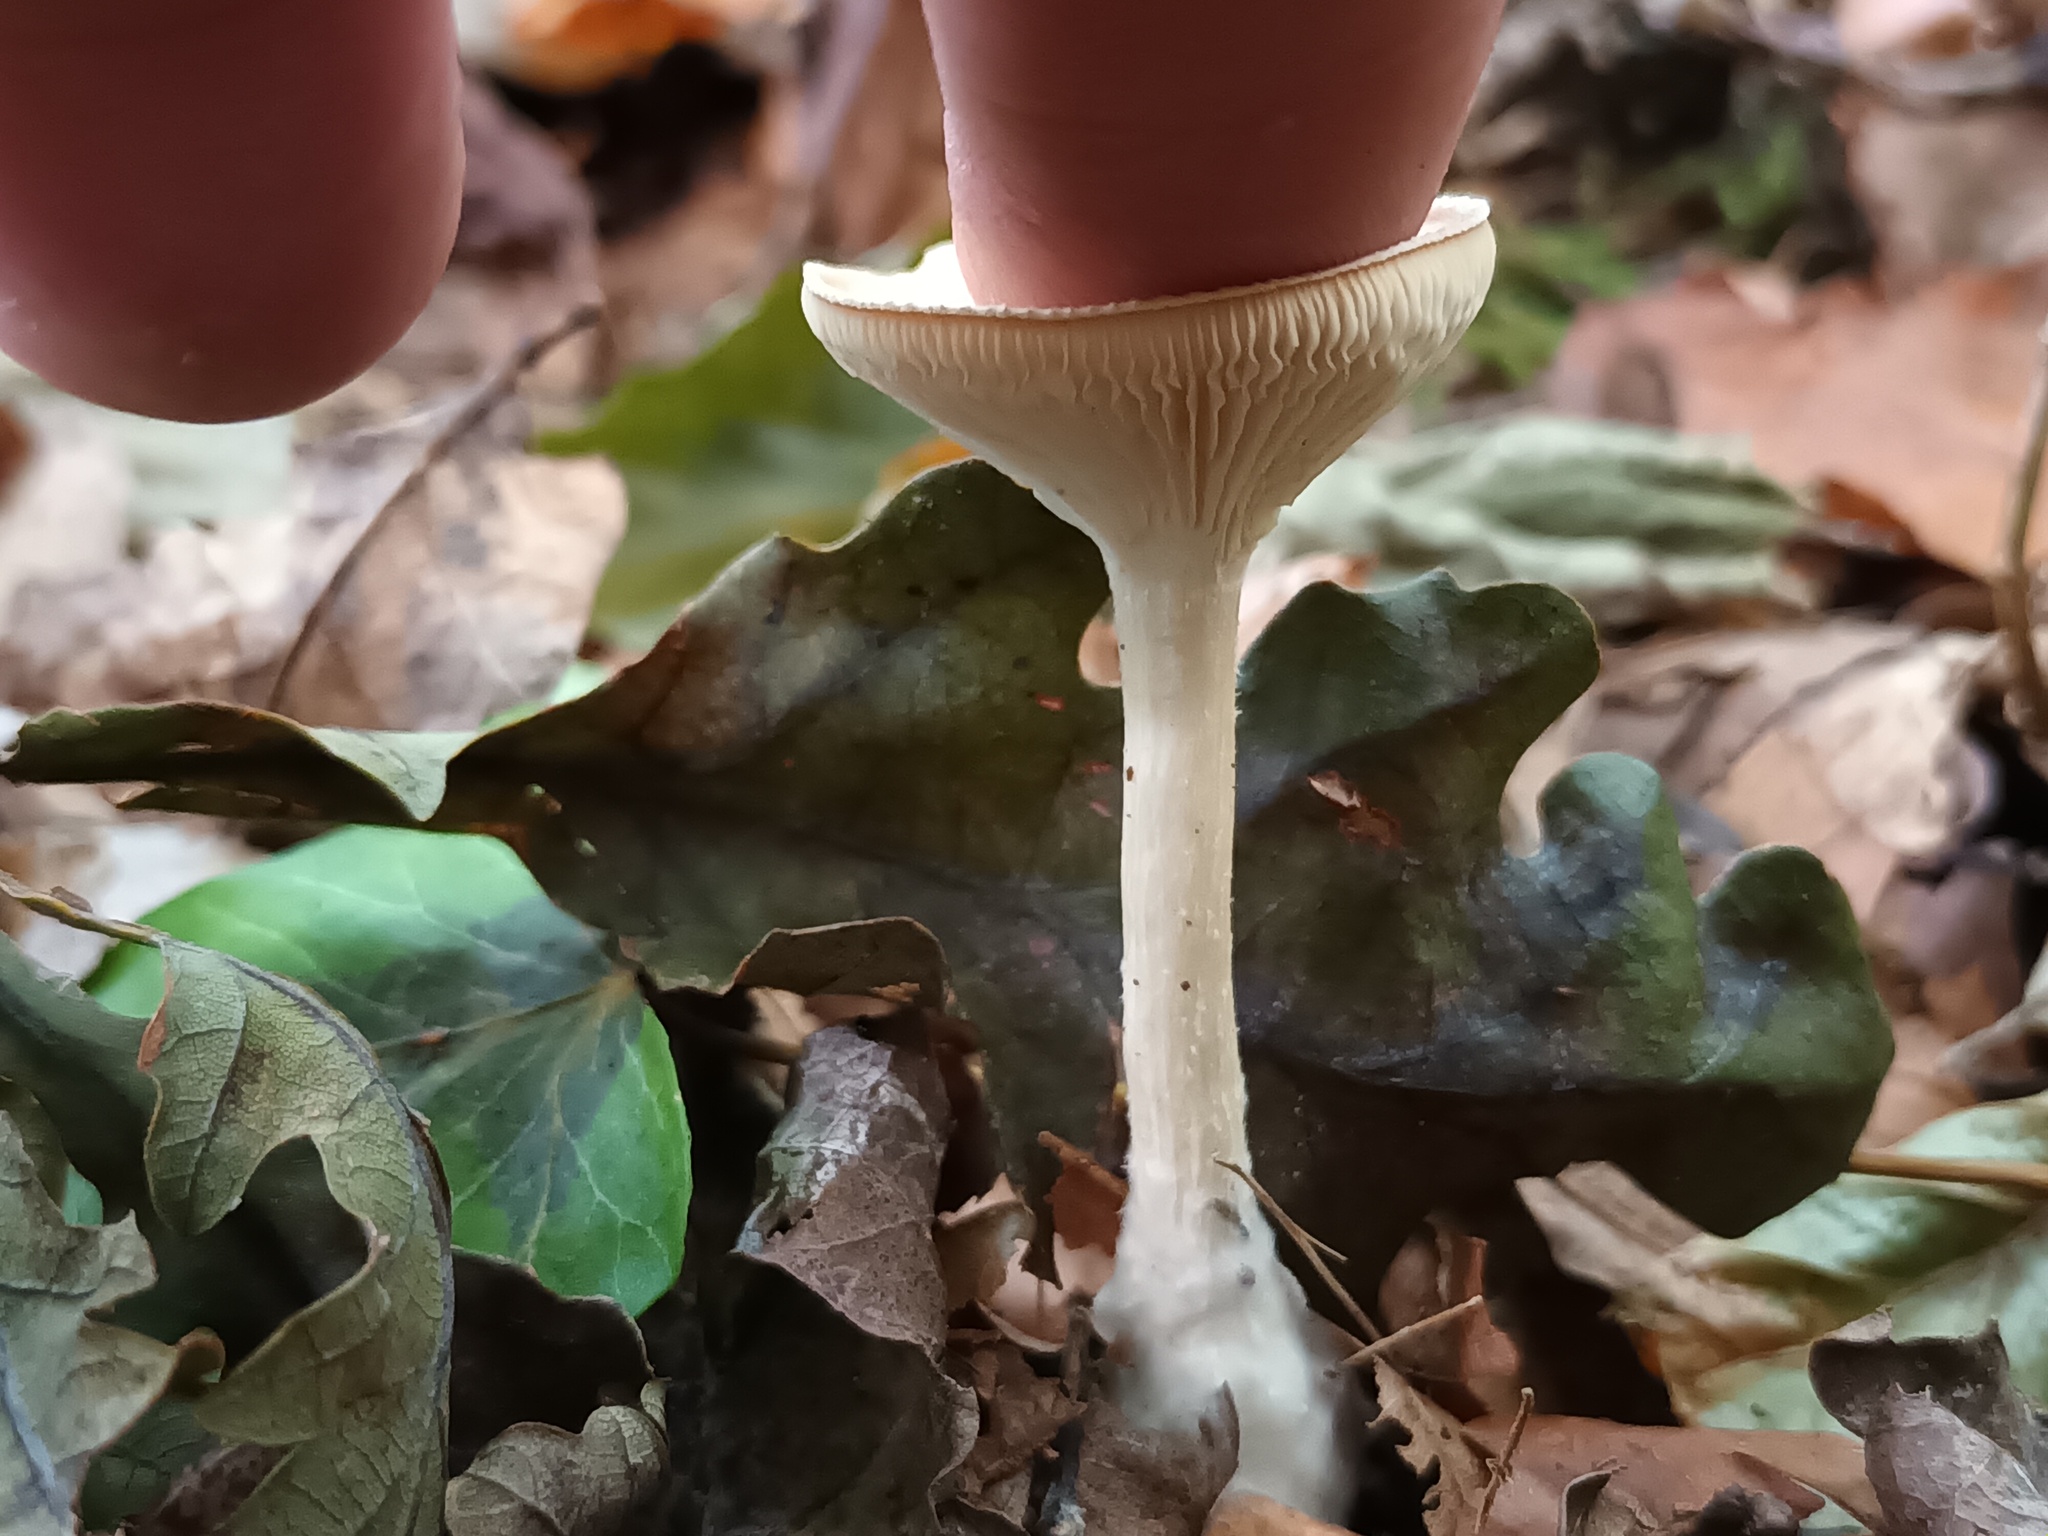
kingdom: Fungi
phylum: Basidiomycota
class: Agaricomycetes
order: Agaricales
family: Tricholomataceae
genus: Infundibulicybe
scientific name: Infundibulicybe gibba
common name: Common funnel
